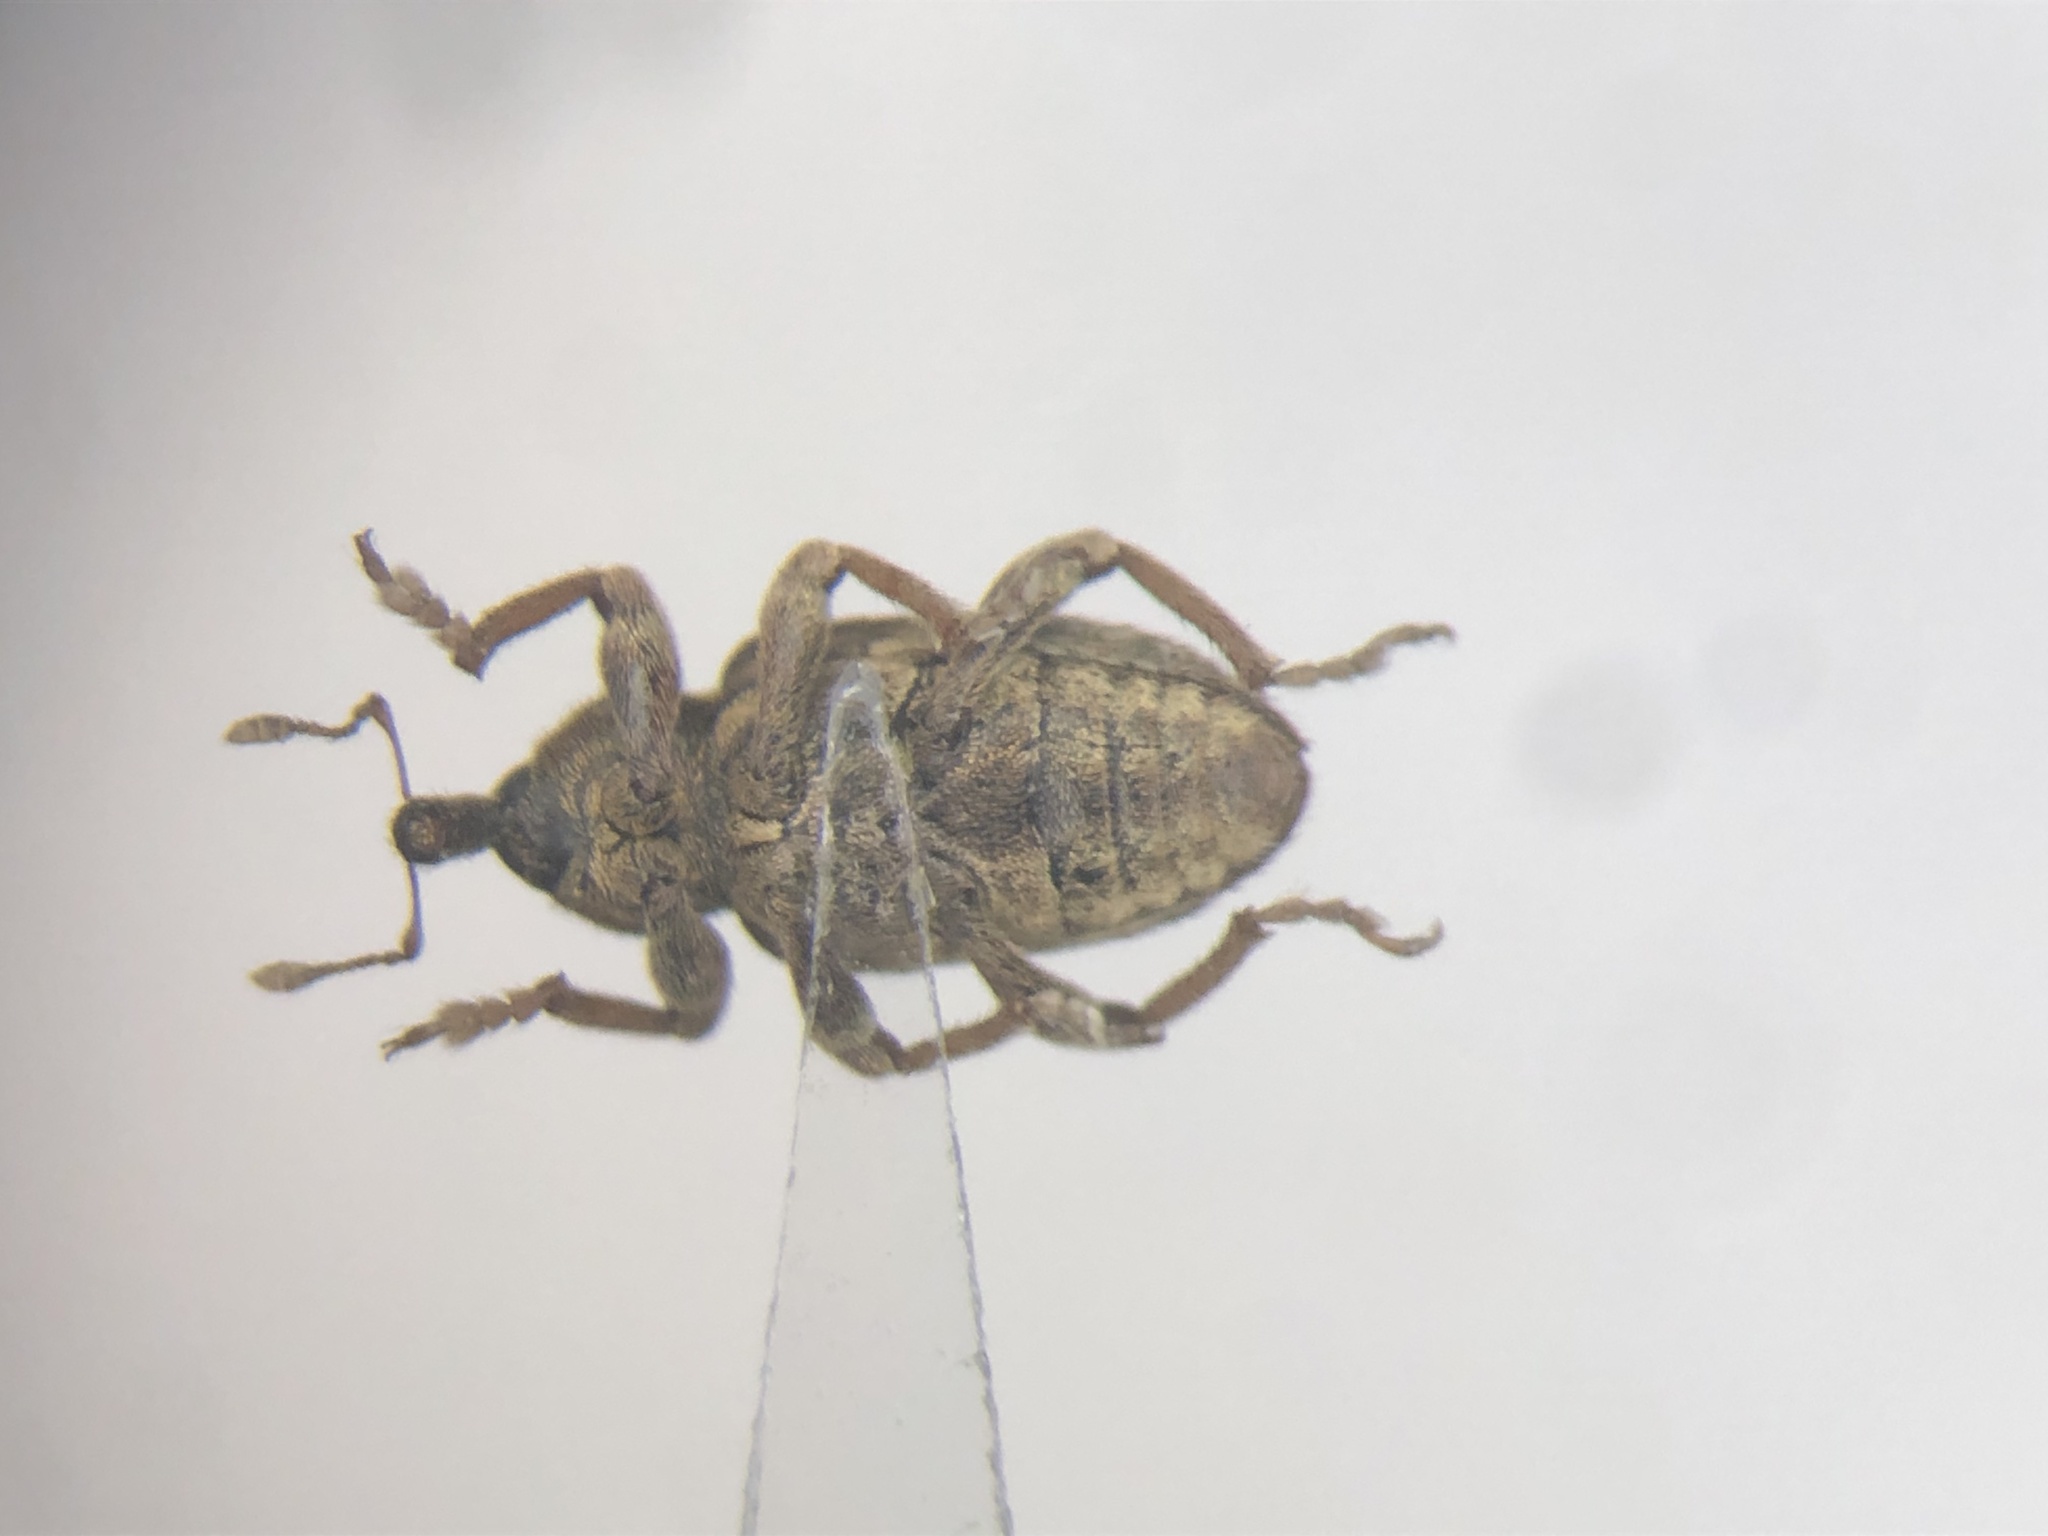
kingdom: Animalia
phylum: Arthropoda
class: Insecta
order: Coleoptera
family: Curculionidae
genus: Hypera
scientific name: Hypera postica
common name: Weevil
